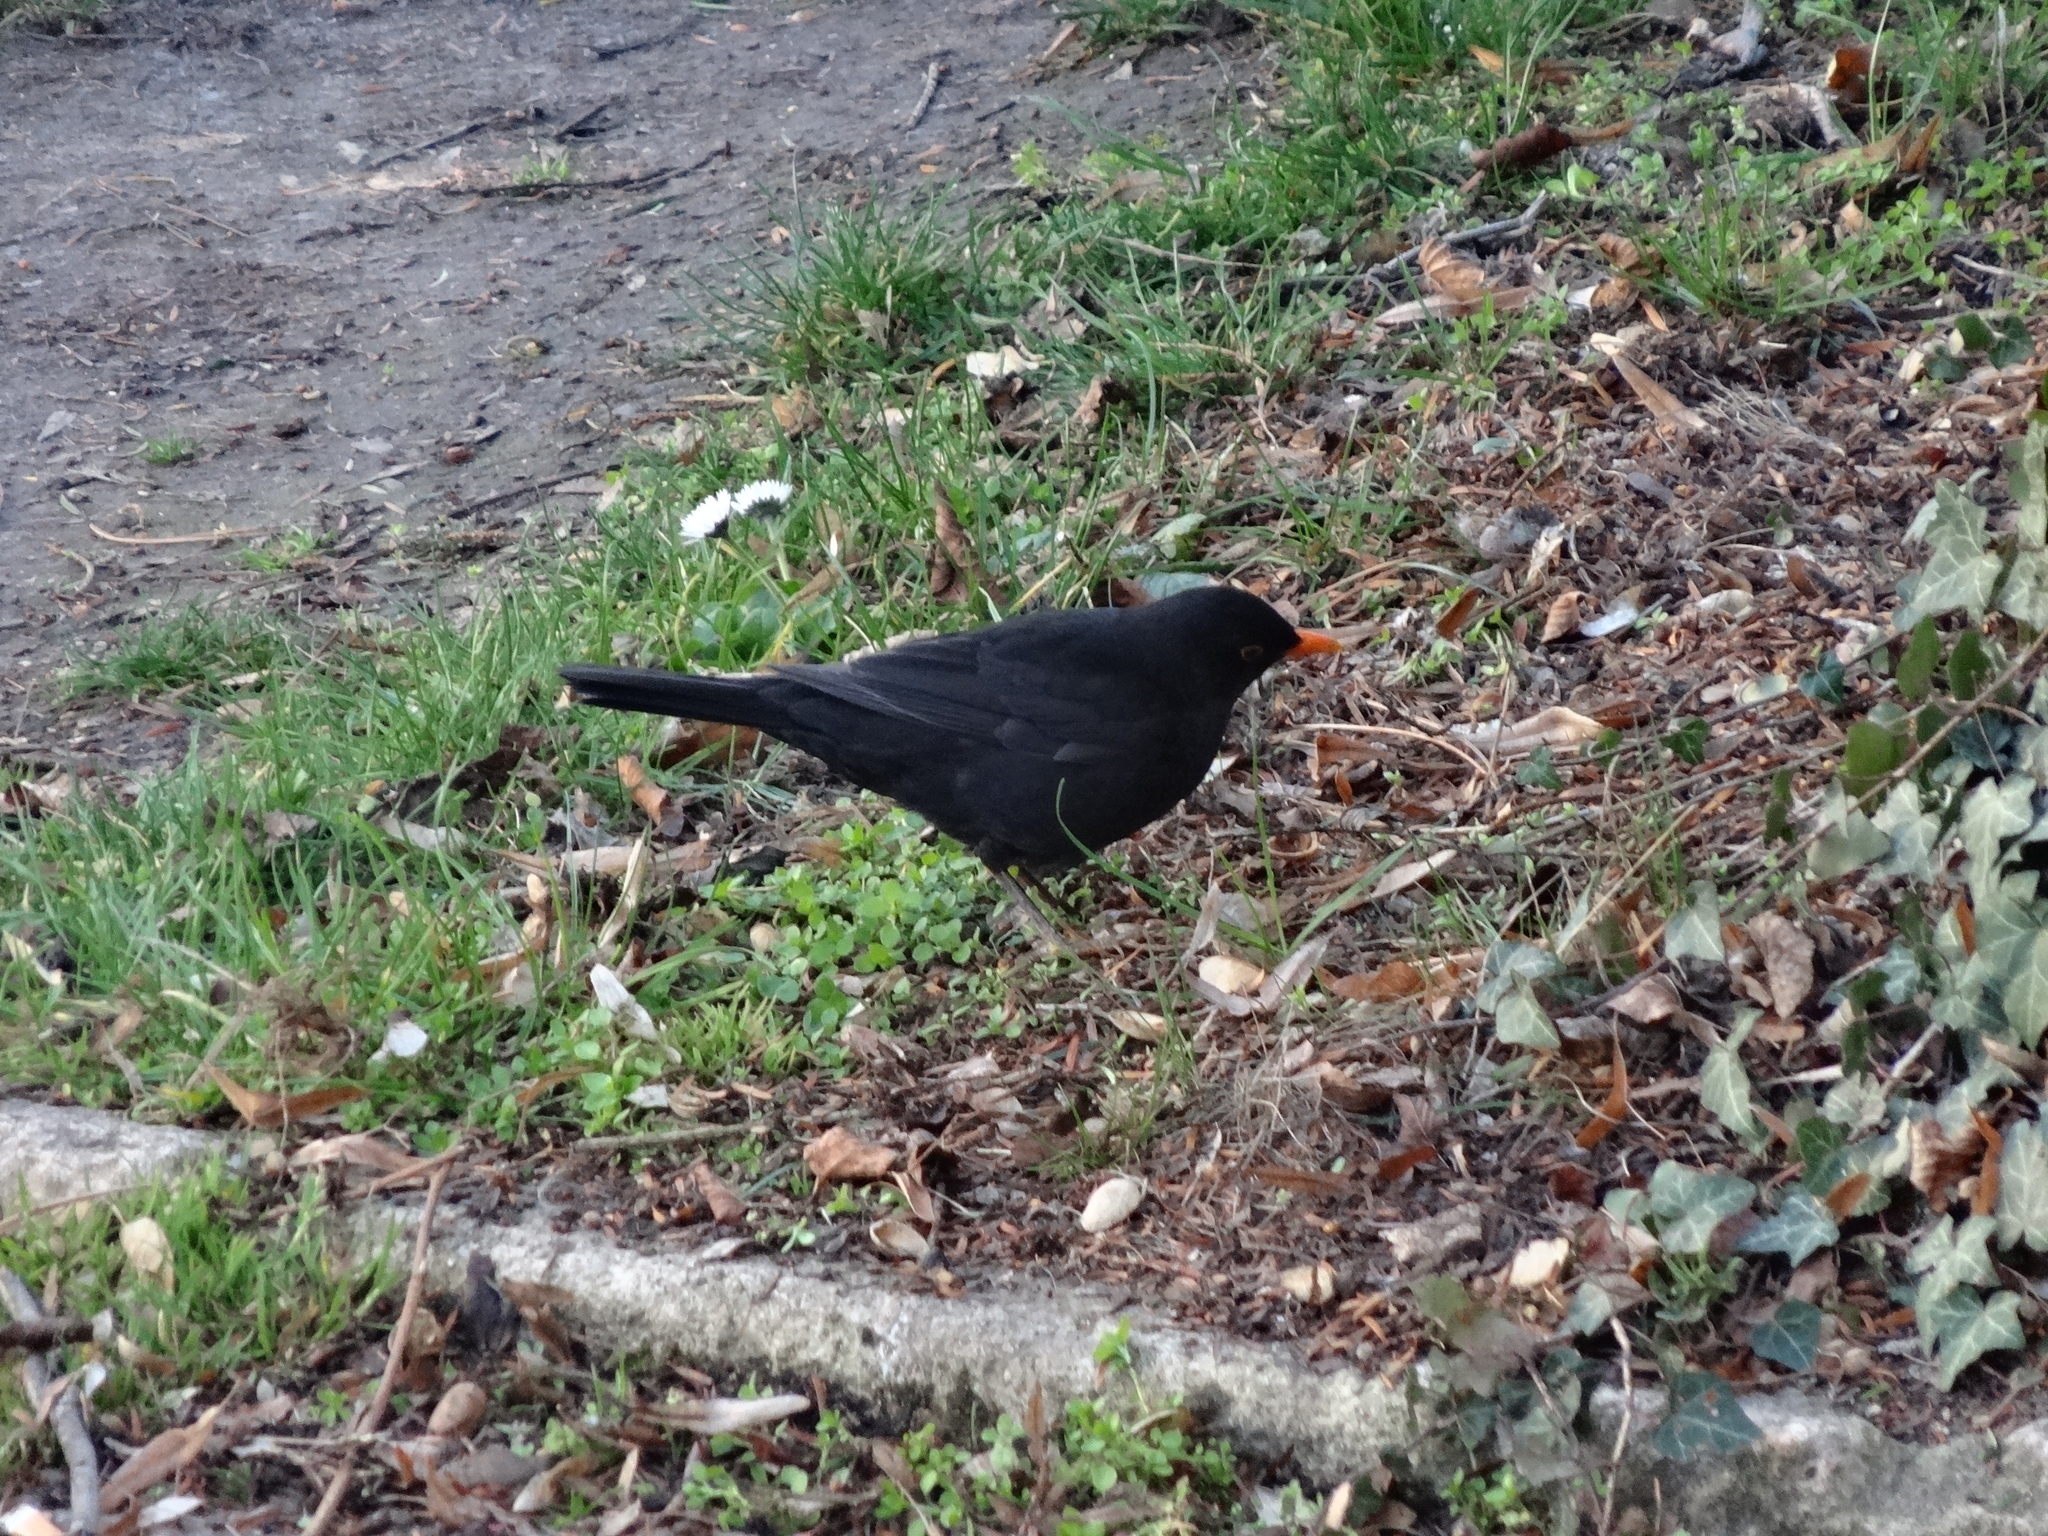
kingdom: Animalia
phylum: Chordata
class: Aves
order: Passeriformes
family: Turdidae
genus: Turdus
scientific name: Turdus merula
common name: Common blackbird
